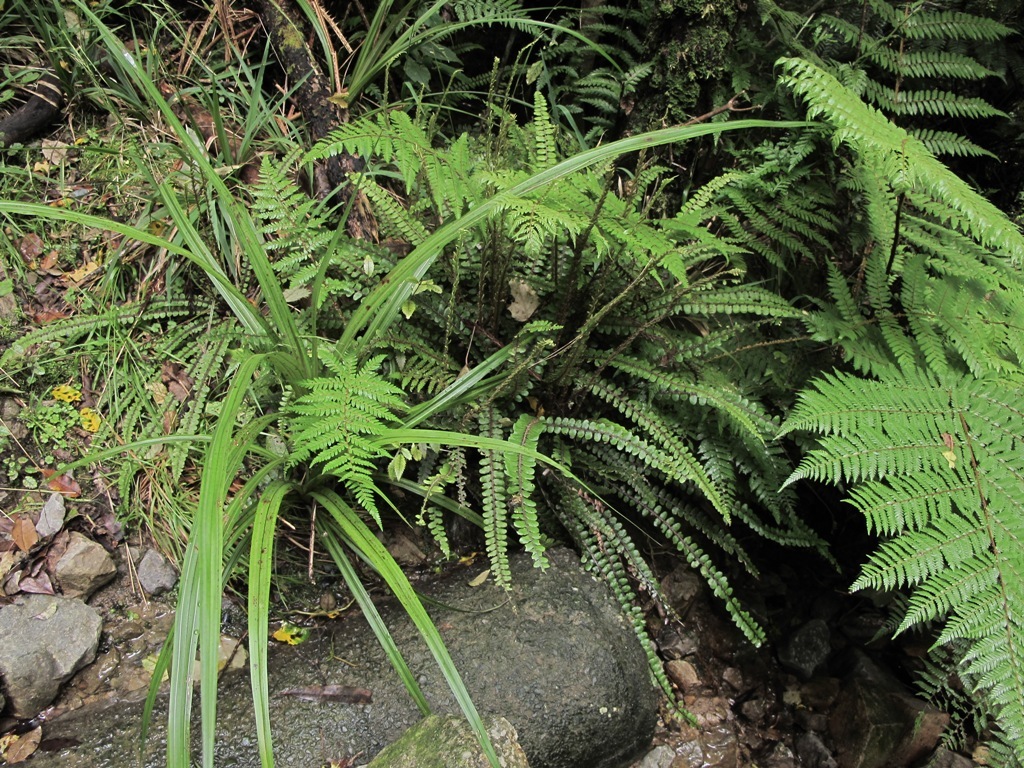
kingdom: Plantae
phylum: Tracheophyta
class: Polypodiopsida
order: Polypodiales
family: Blechnaceae
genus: Cranfillia
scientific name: Cranfillia fluviatilis
